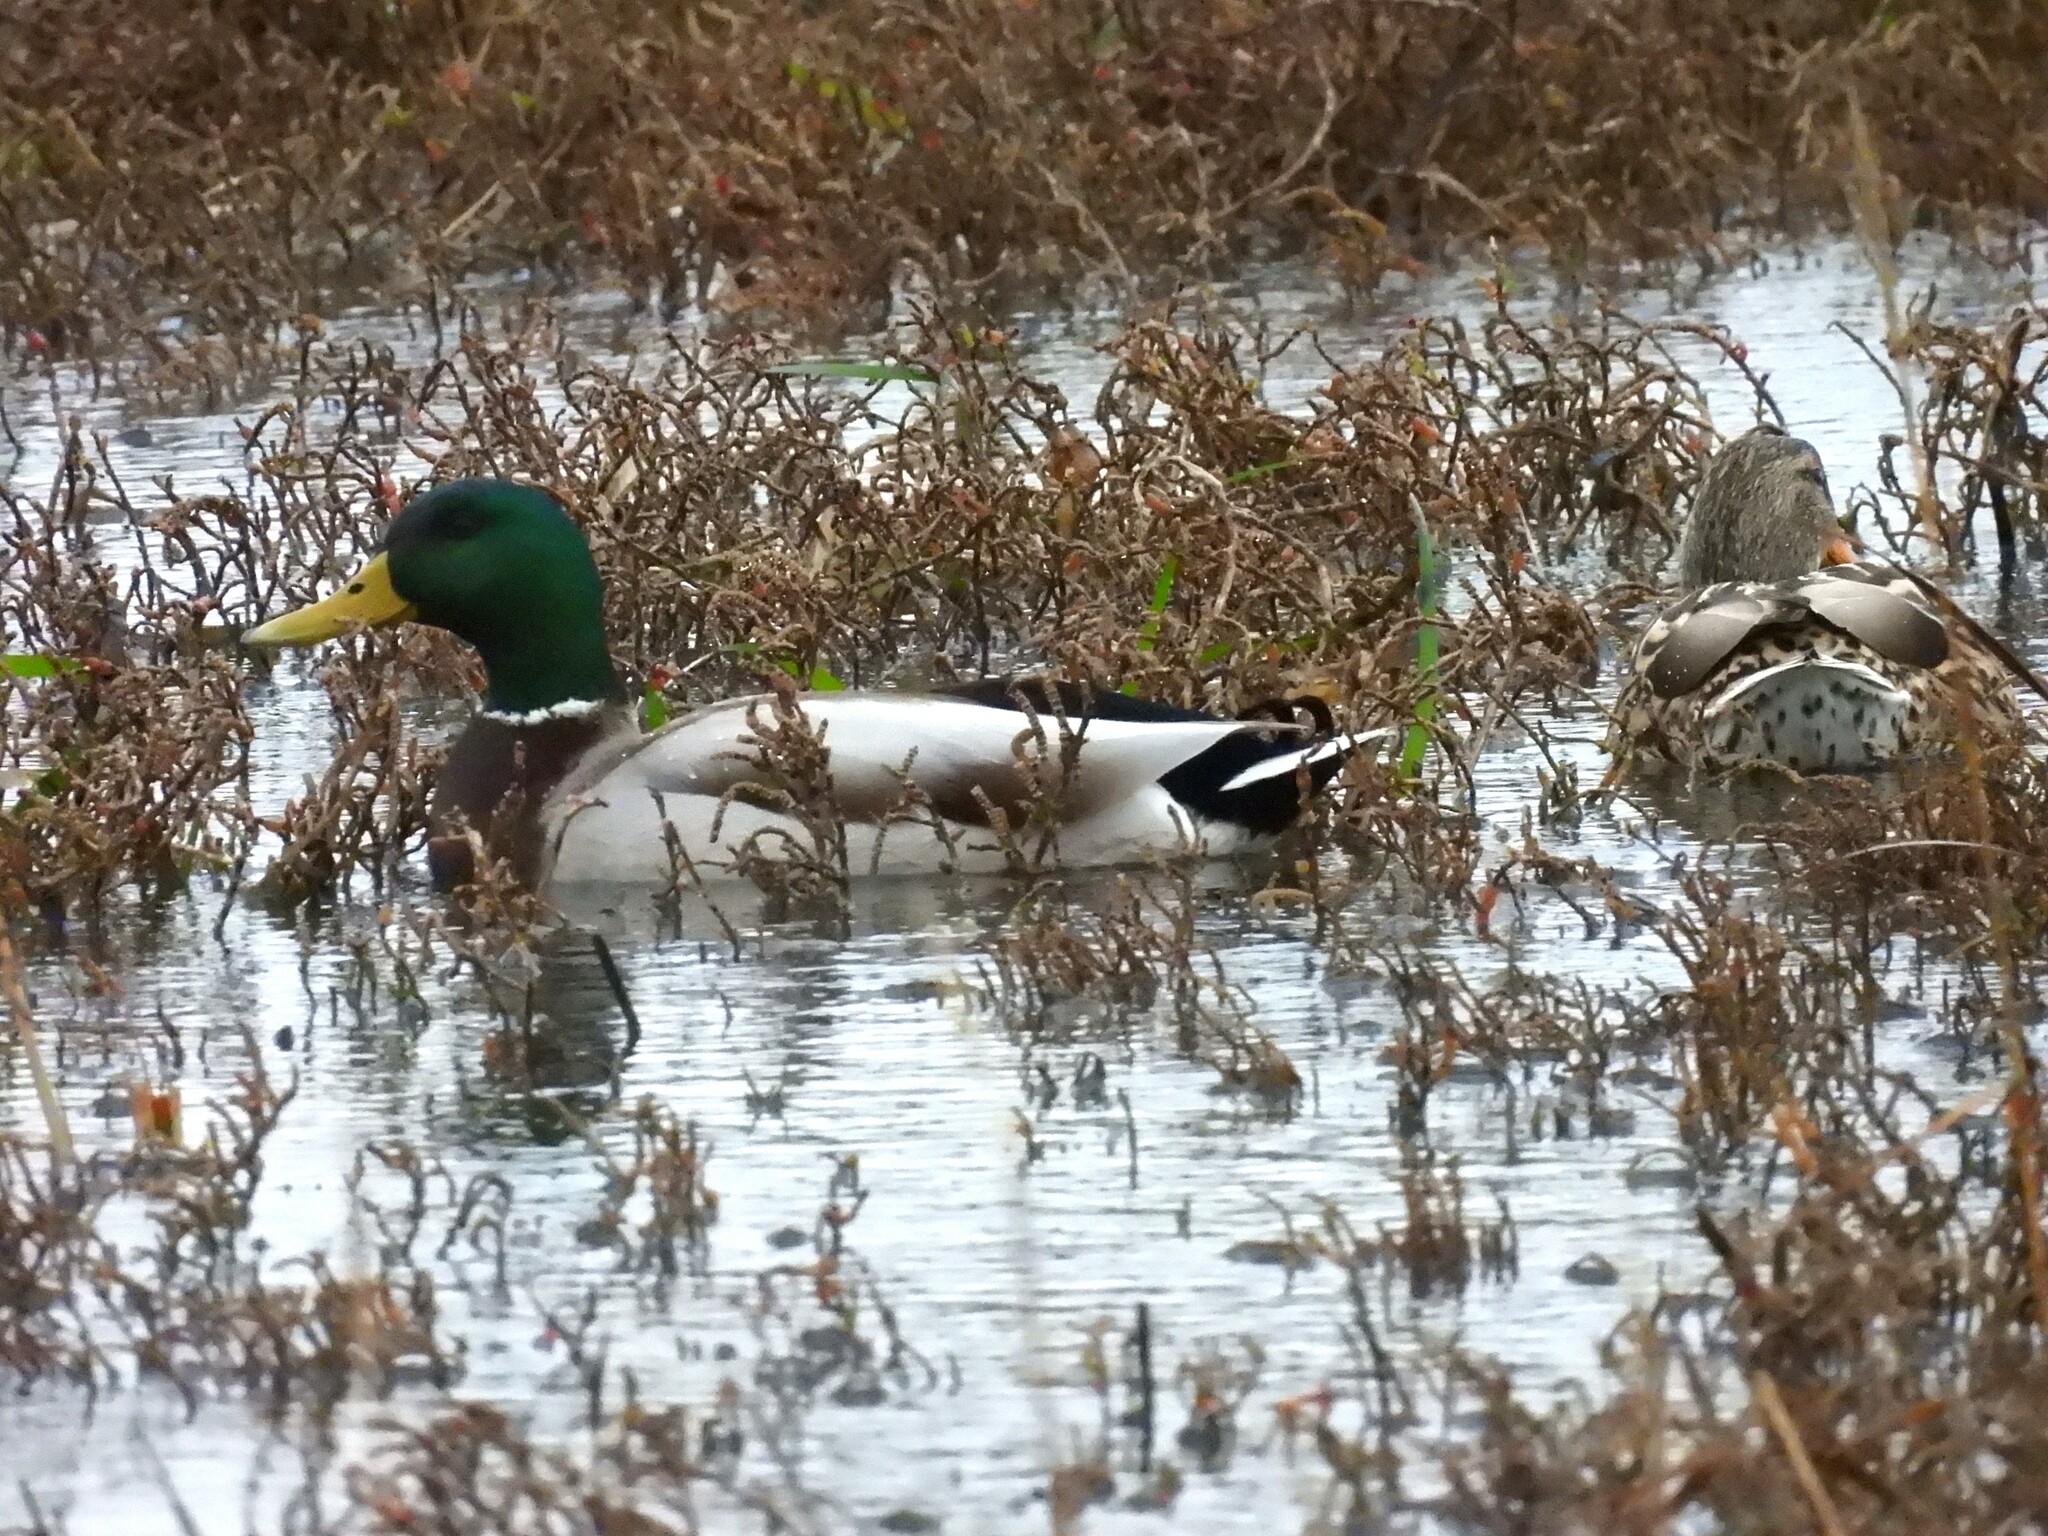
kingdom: Animalia
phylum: Chordata
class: Aves
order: Anseriformes
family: Anatidae
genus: Anas
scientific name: Anas platyrhynchos
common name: Mallard
